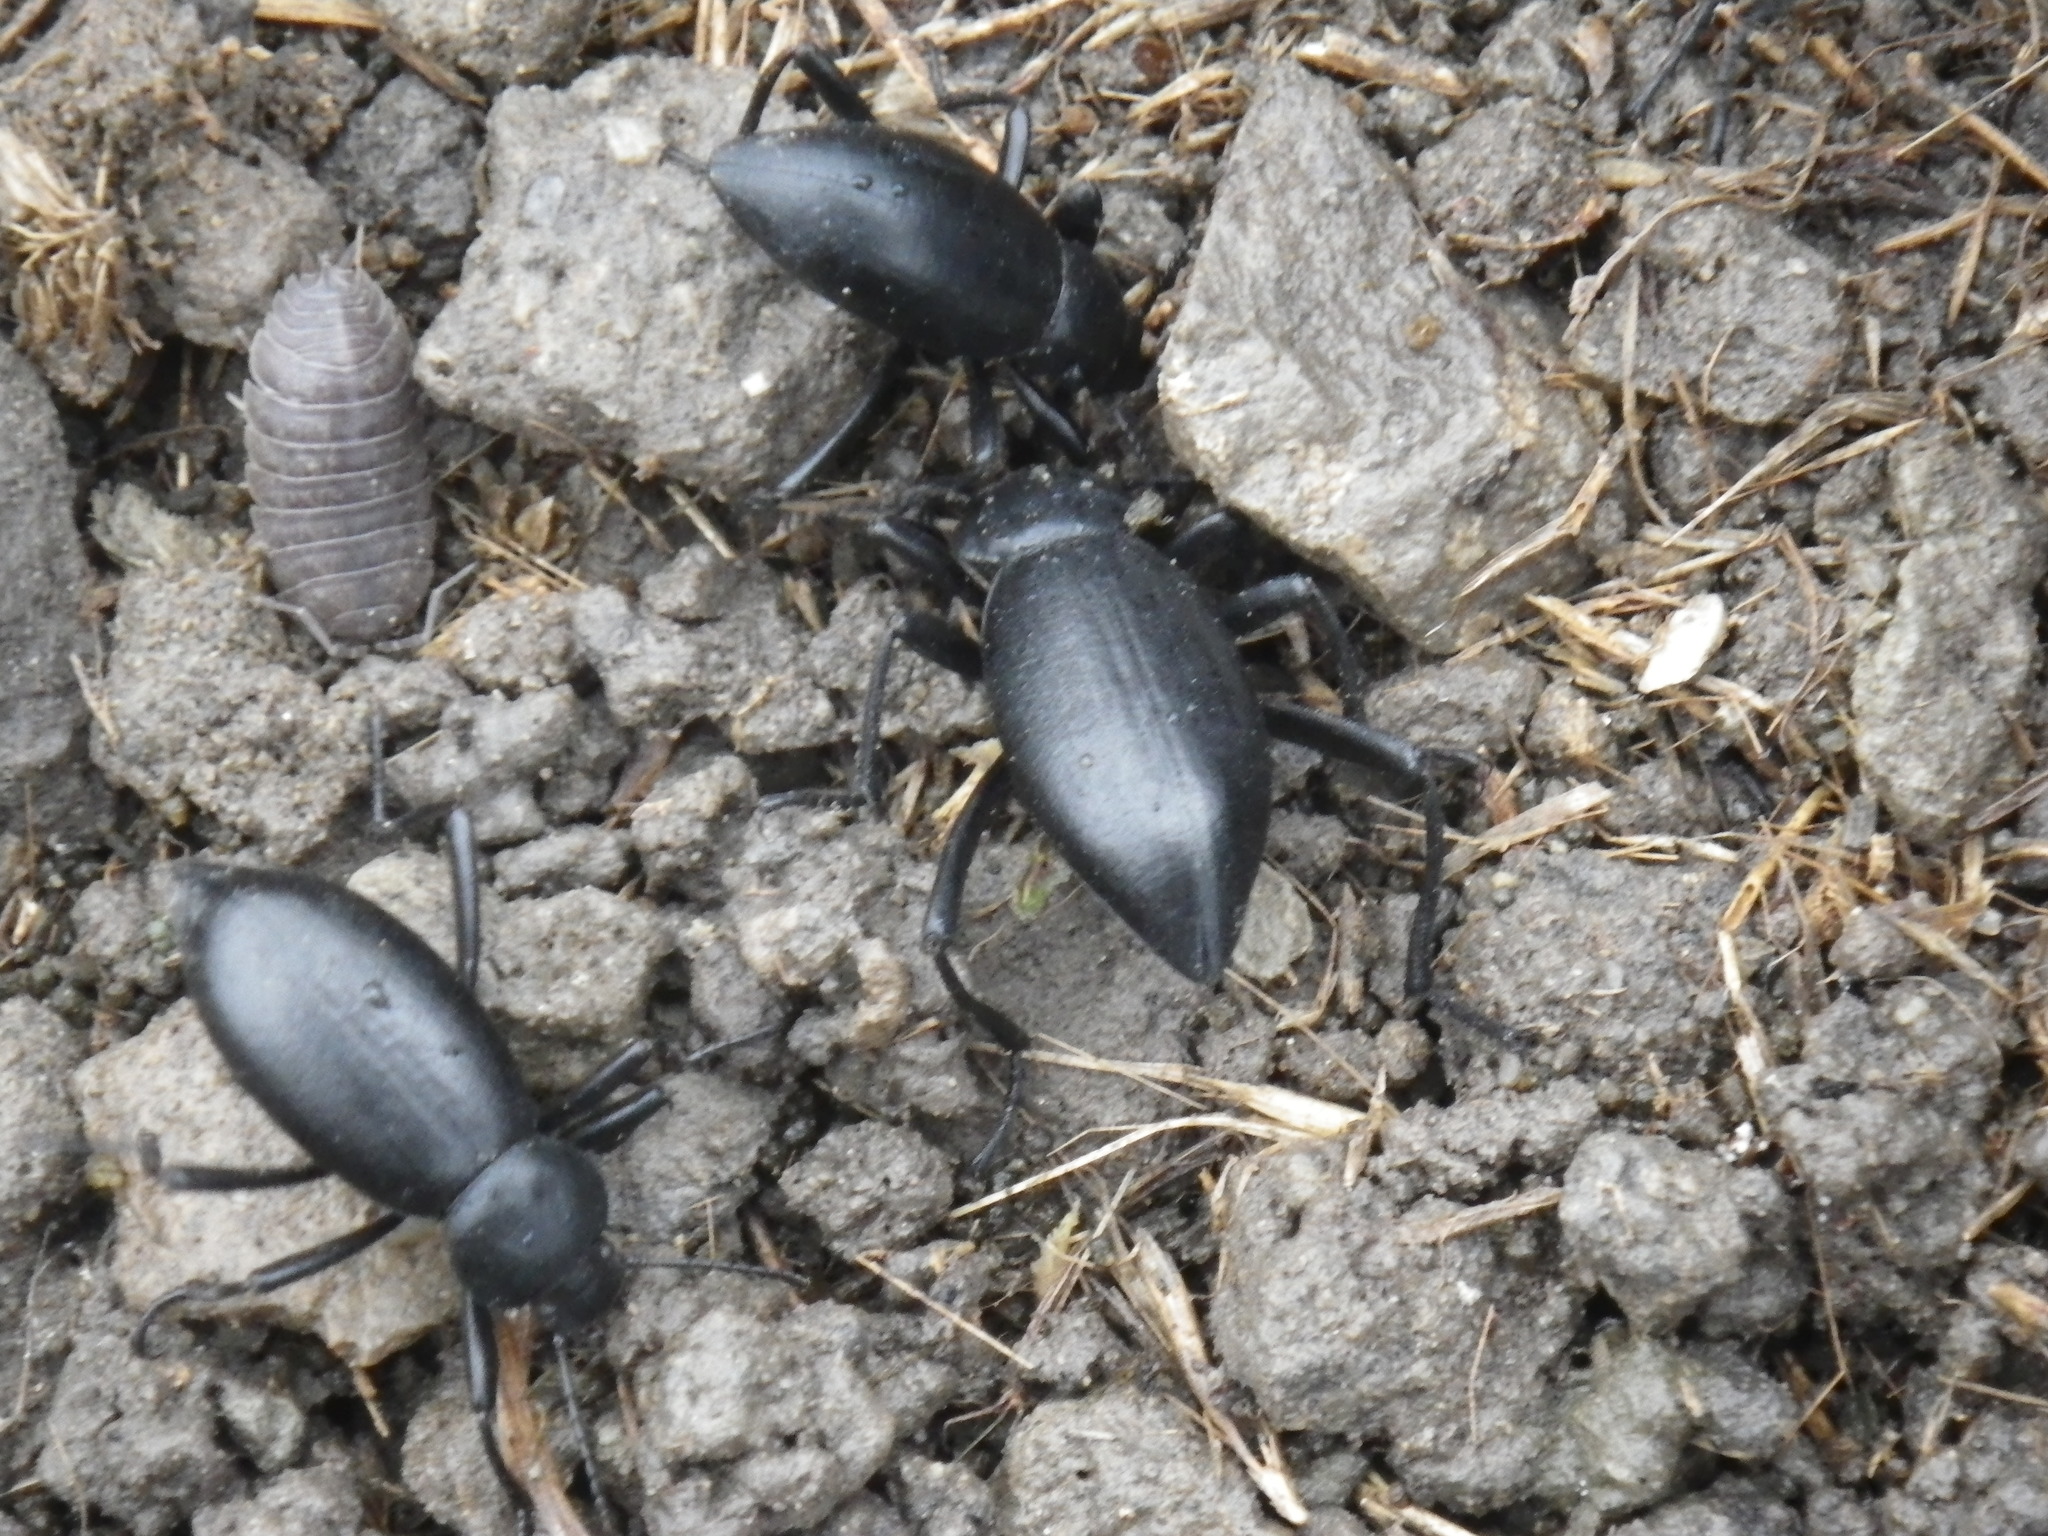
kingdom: Animalia
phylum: Arthropoda
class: Insecta
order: Coleoptera
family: Tenebrionidae
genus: Eleodes
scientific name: Eleodes dentipes
